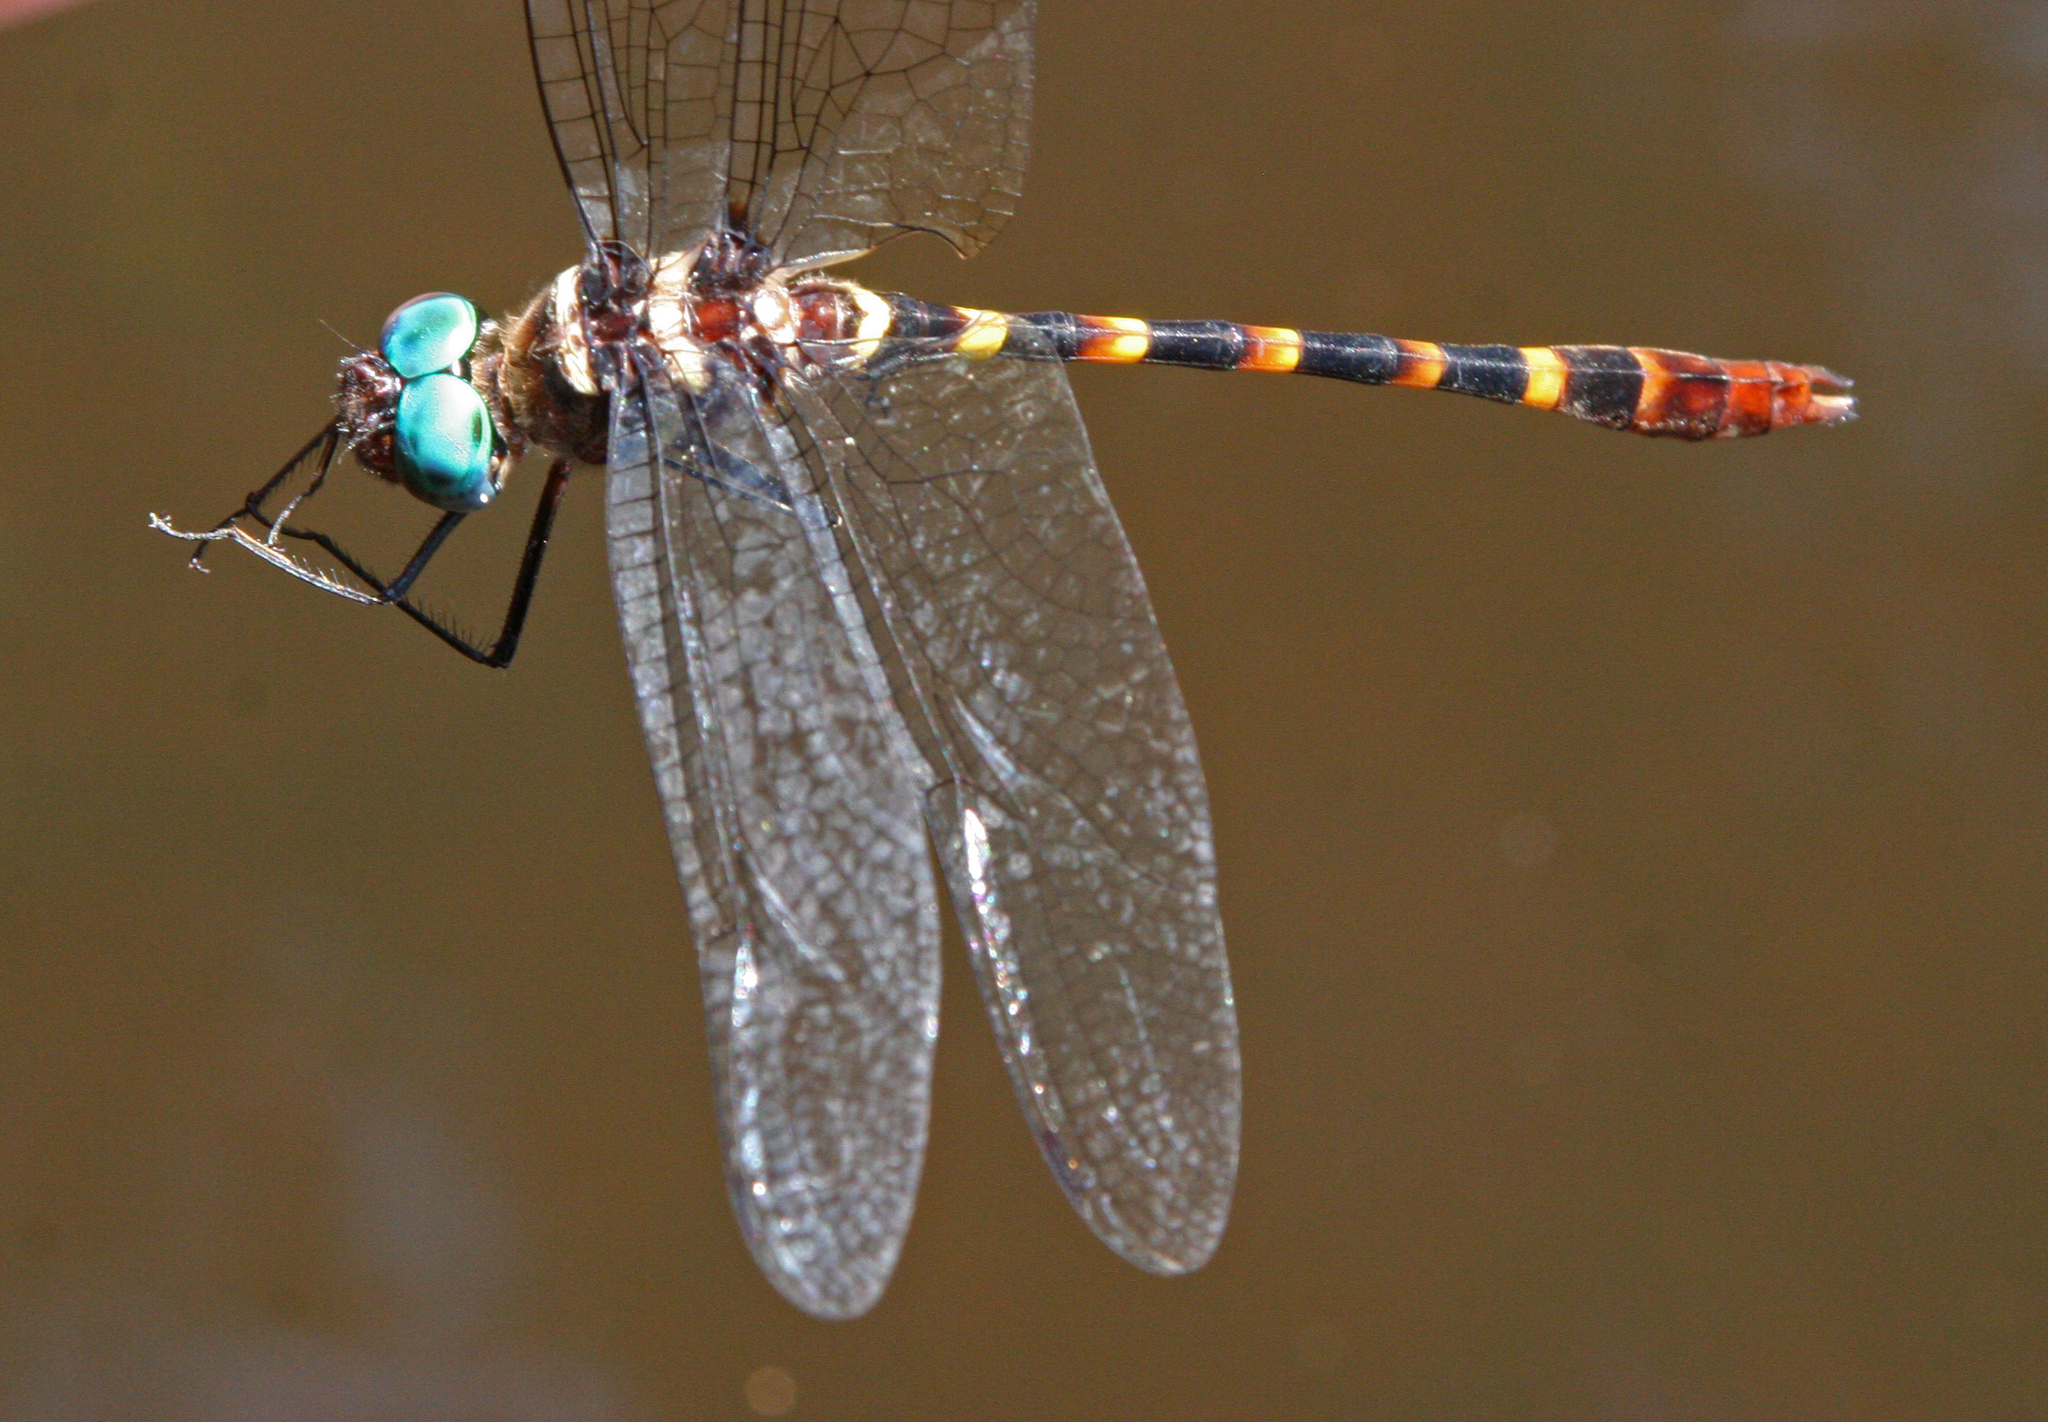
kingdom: Animalia
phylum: Arthropoda
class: Insecta
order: Odonata
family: Macromiidae
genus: Macromia
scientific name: Macromia cupricincta
